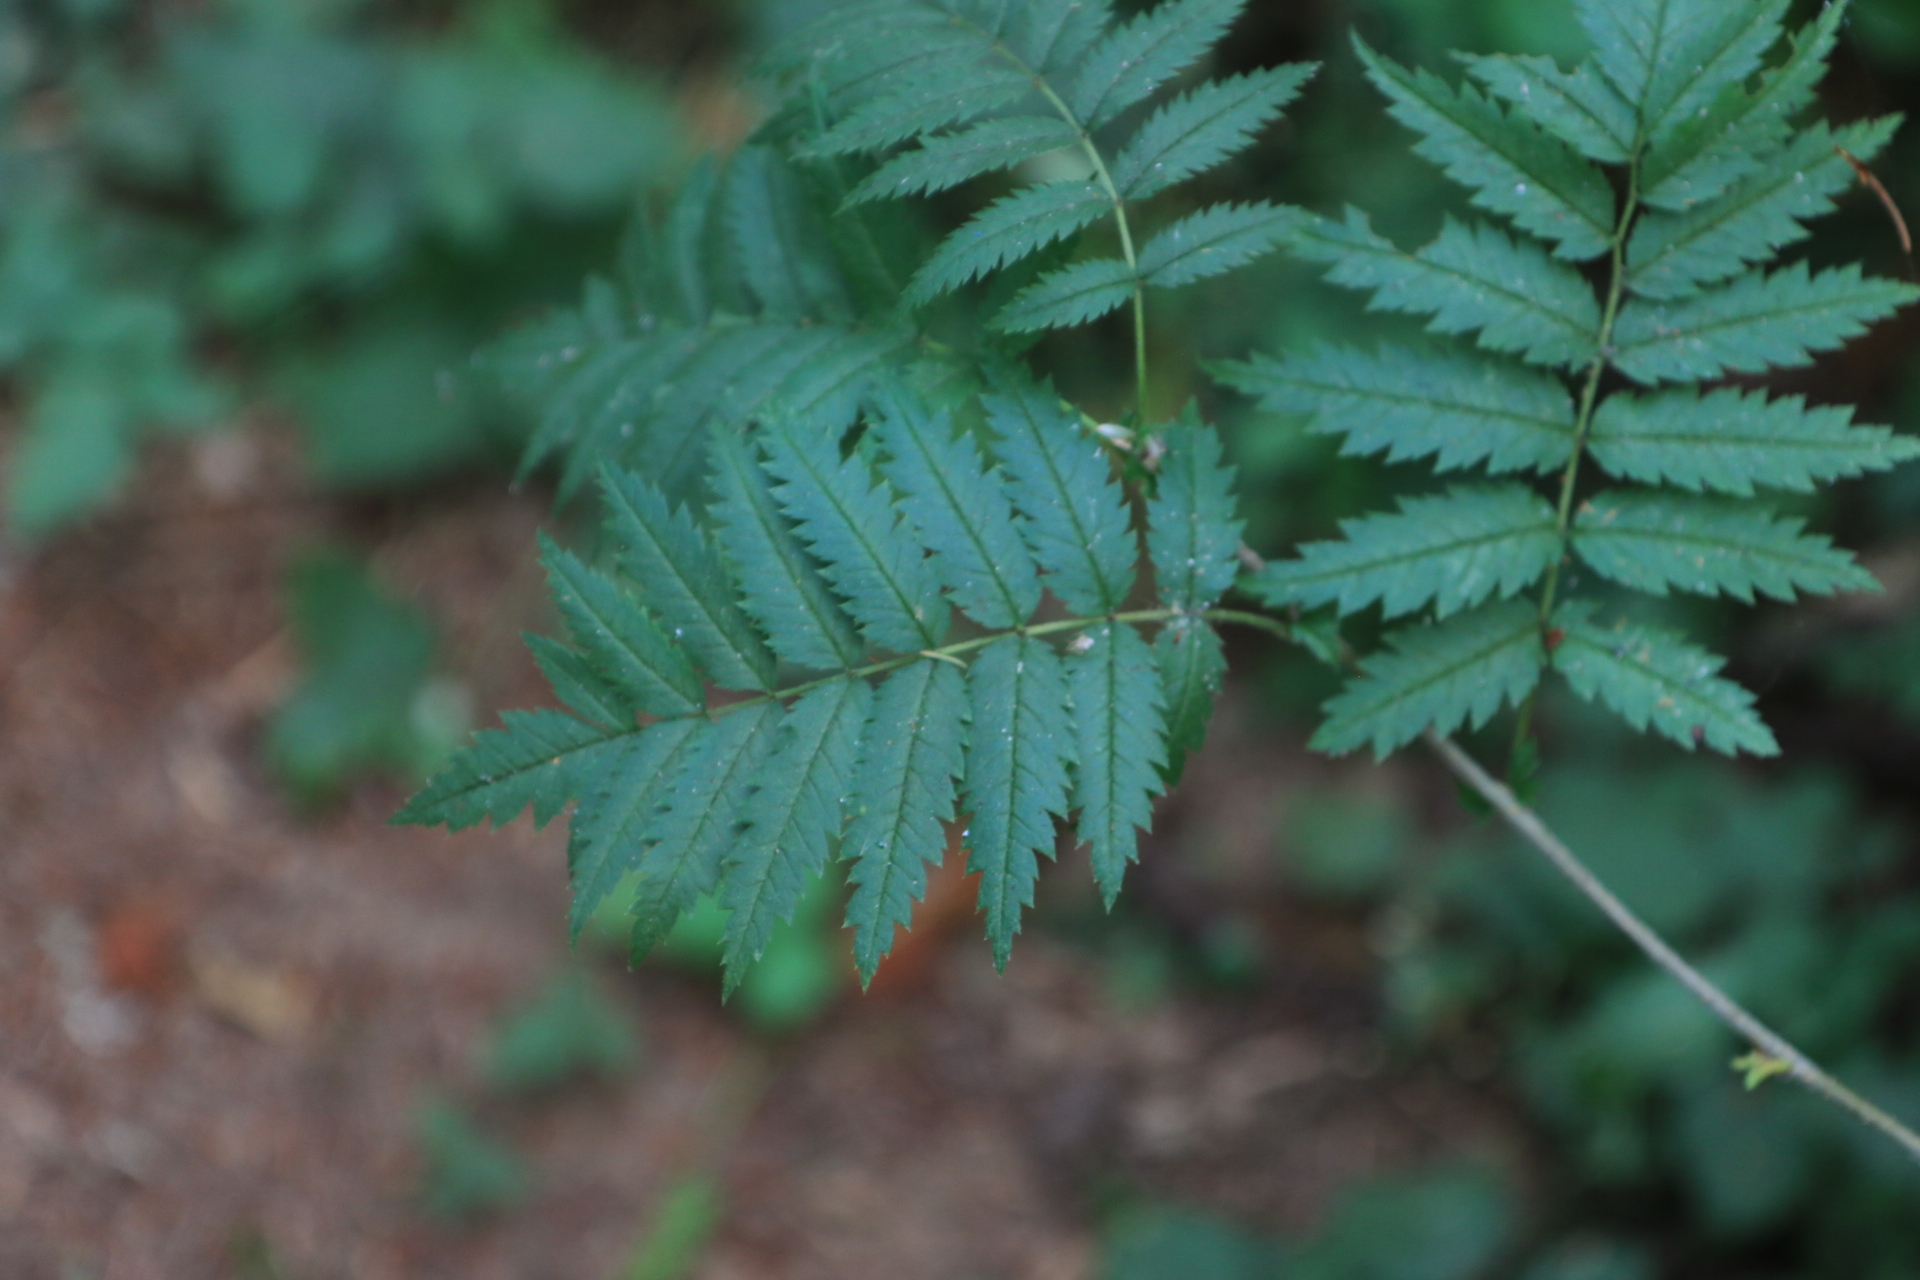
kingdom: Plantae
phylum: Tracheophyta
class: Magnoliopsida
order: Rosales
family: Rosaceae
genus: Sorbus
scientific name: Sorbus aucuparia
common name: Rowan
